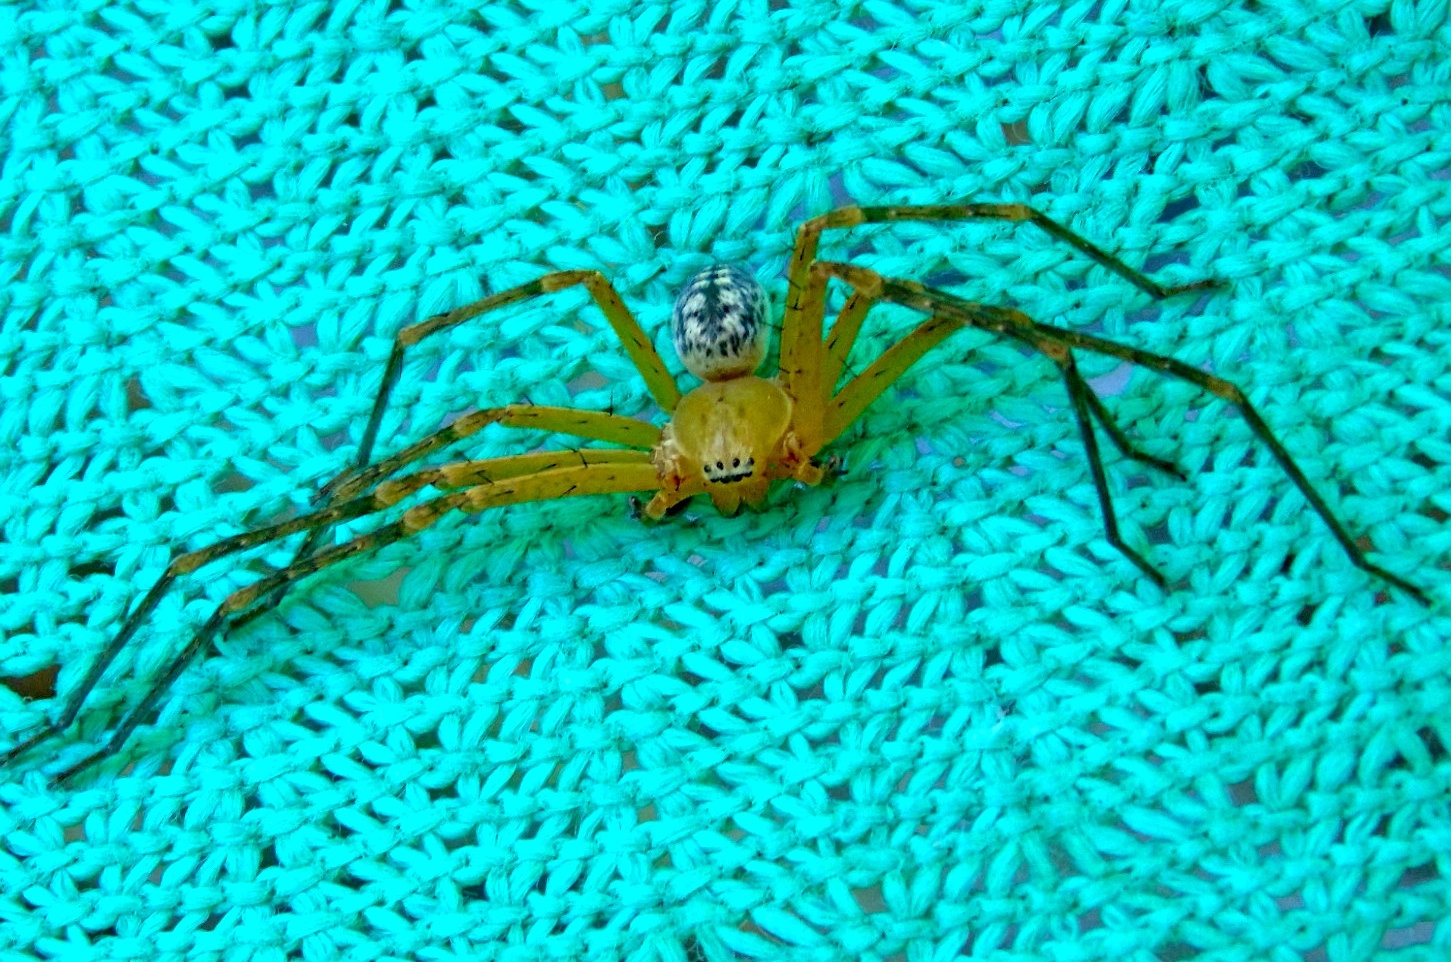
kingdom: Animalia
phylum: Arthropoda
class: Arachnida
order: Araneae
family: Sparassidae
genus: Curicaberis
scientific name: Curicaberis culiacan
